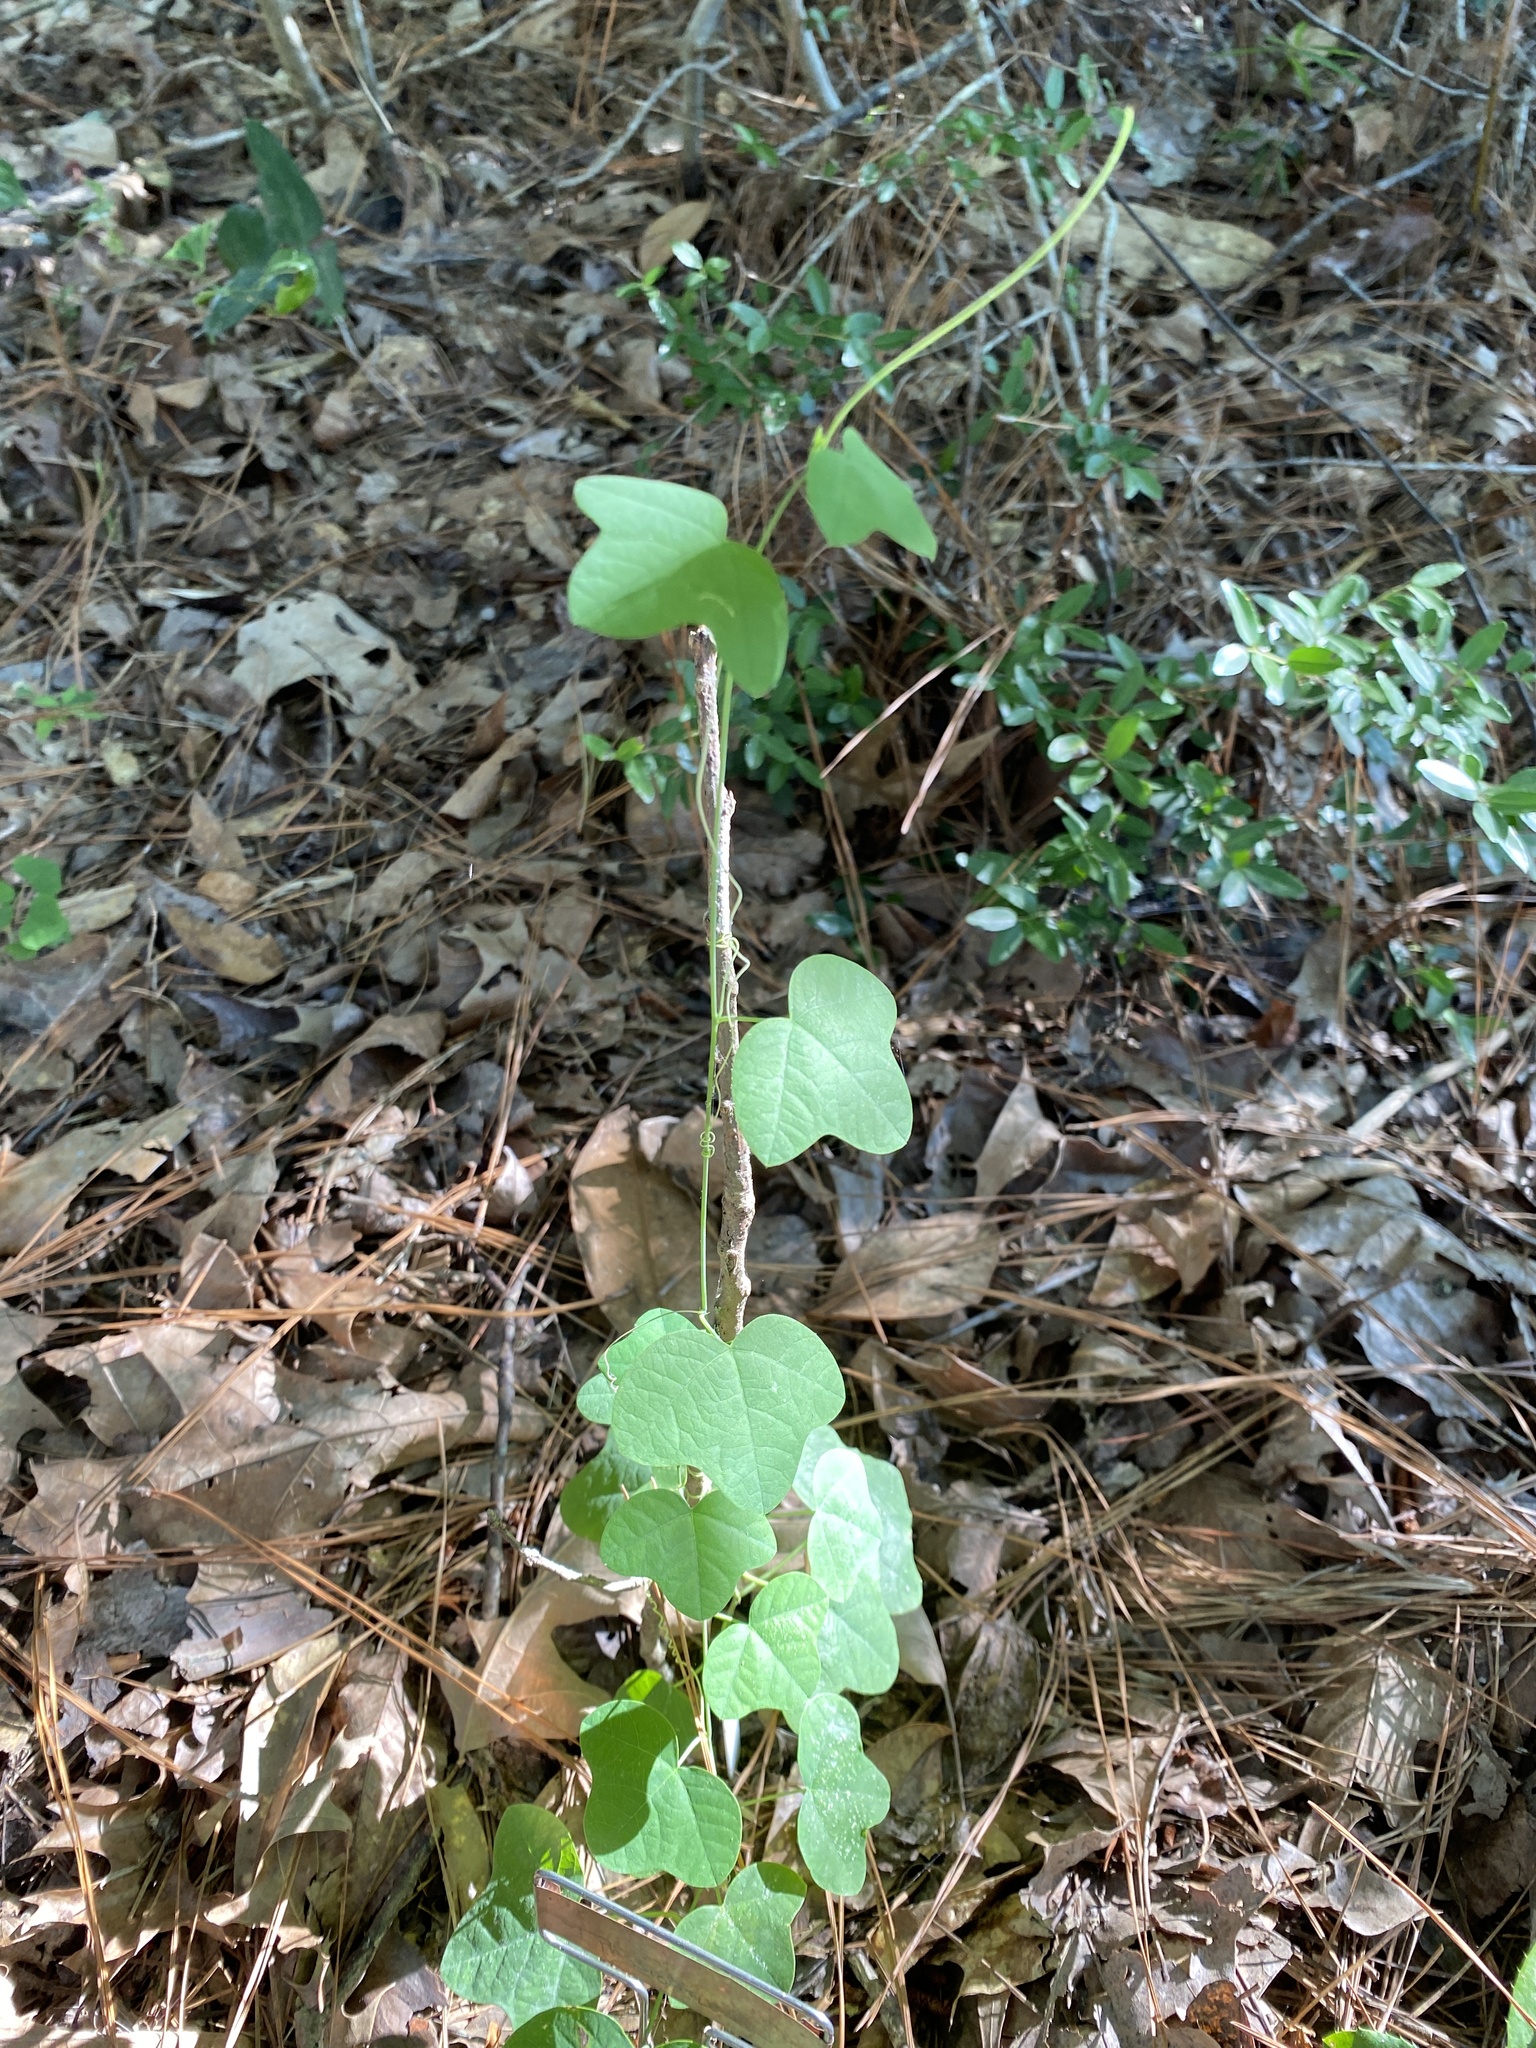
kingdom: Plantae
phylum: Tracheophyta
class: Magnoliopsida
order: Malpighiales
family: Passifloraceae
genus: Passiflora
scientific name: Passiflora lutea
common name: Yellow passionflower
